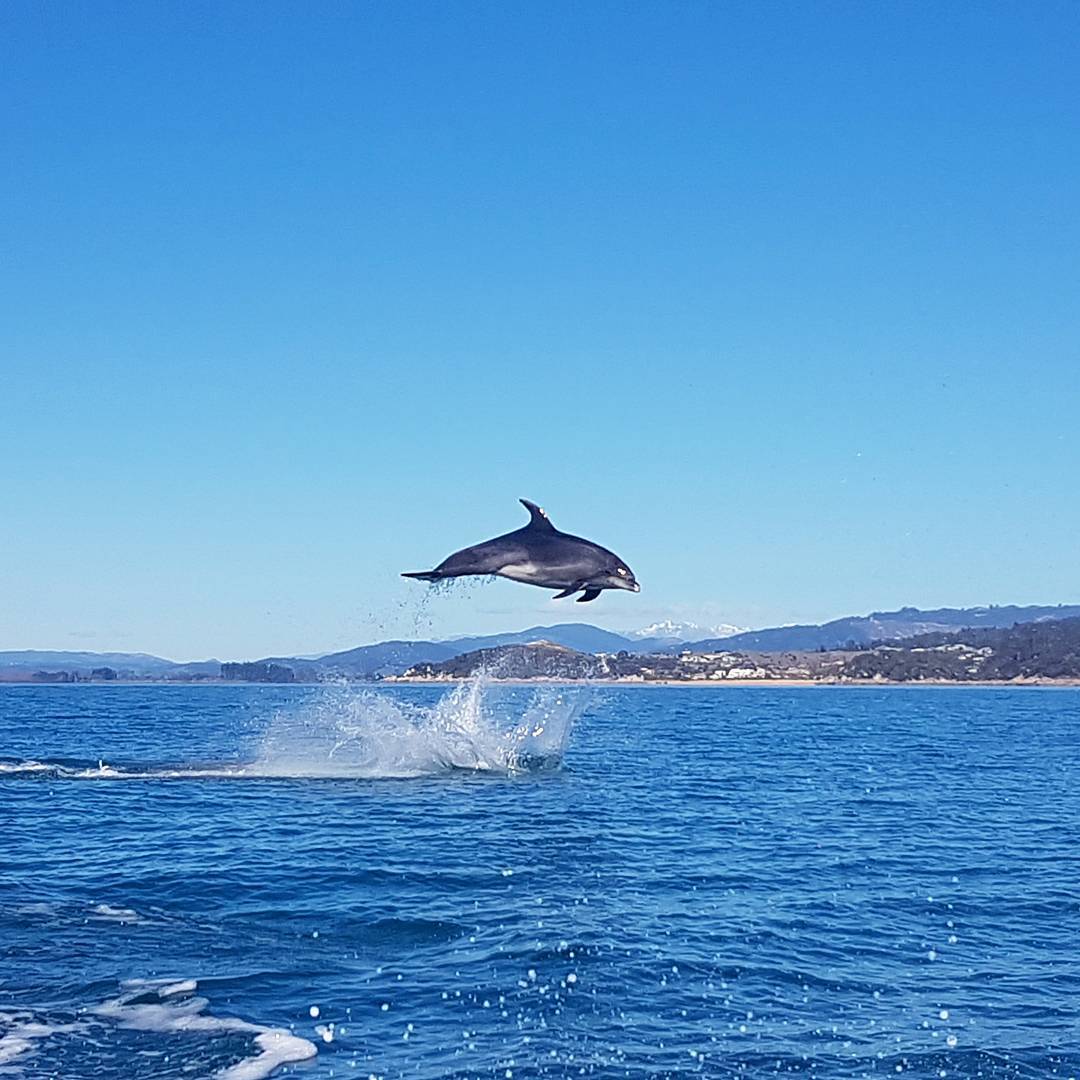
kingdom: Animalia
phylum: Chordata
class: Mammalia
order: Cetacea
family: Delphinidae
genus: Tursiops
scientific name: Tursiops truncatus
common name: Bottlenose dolphin
